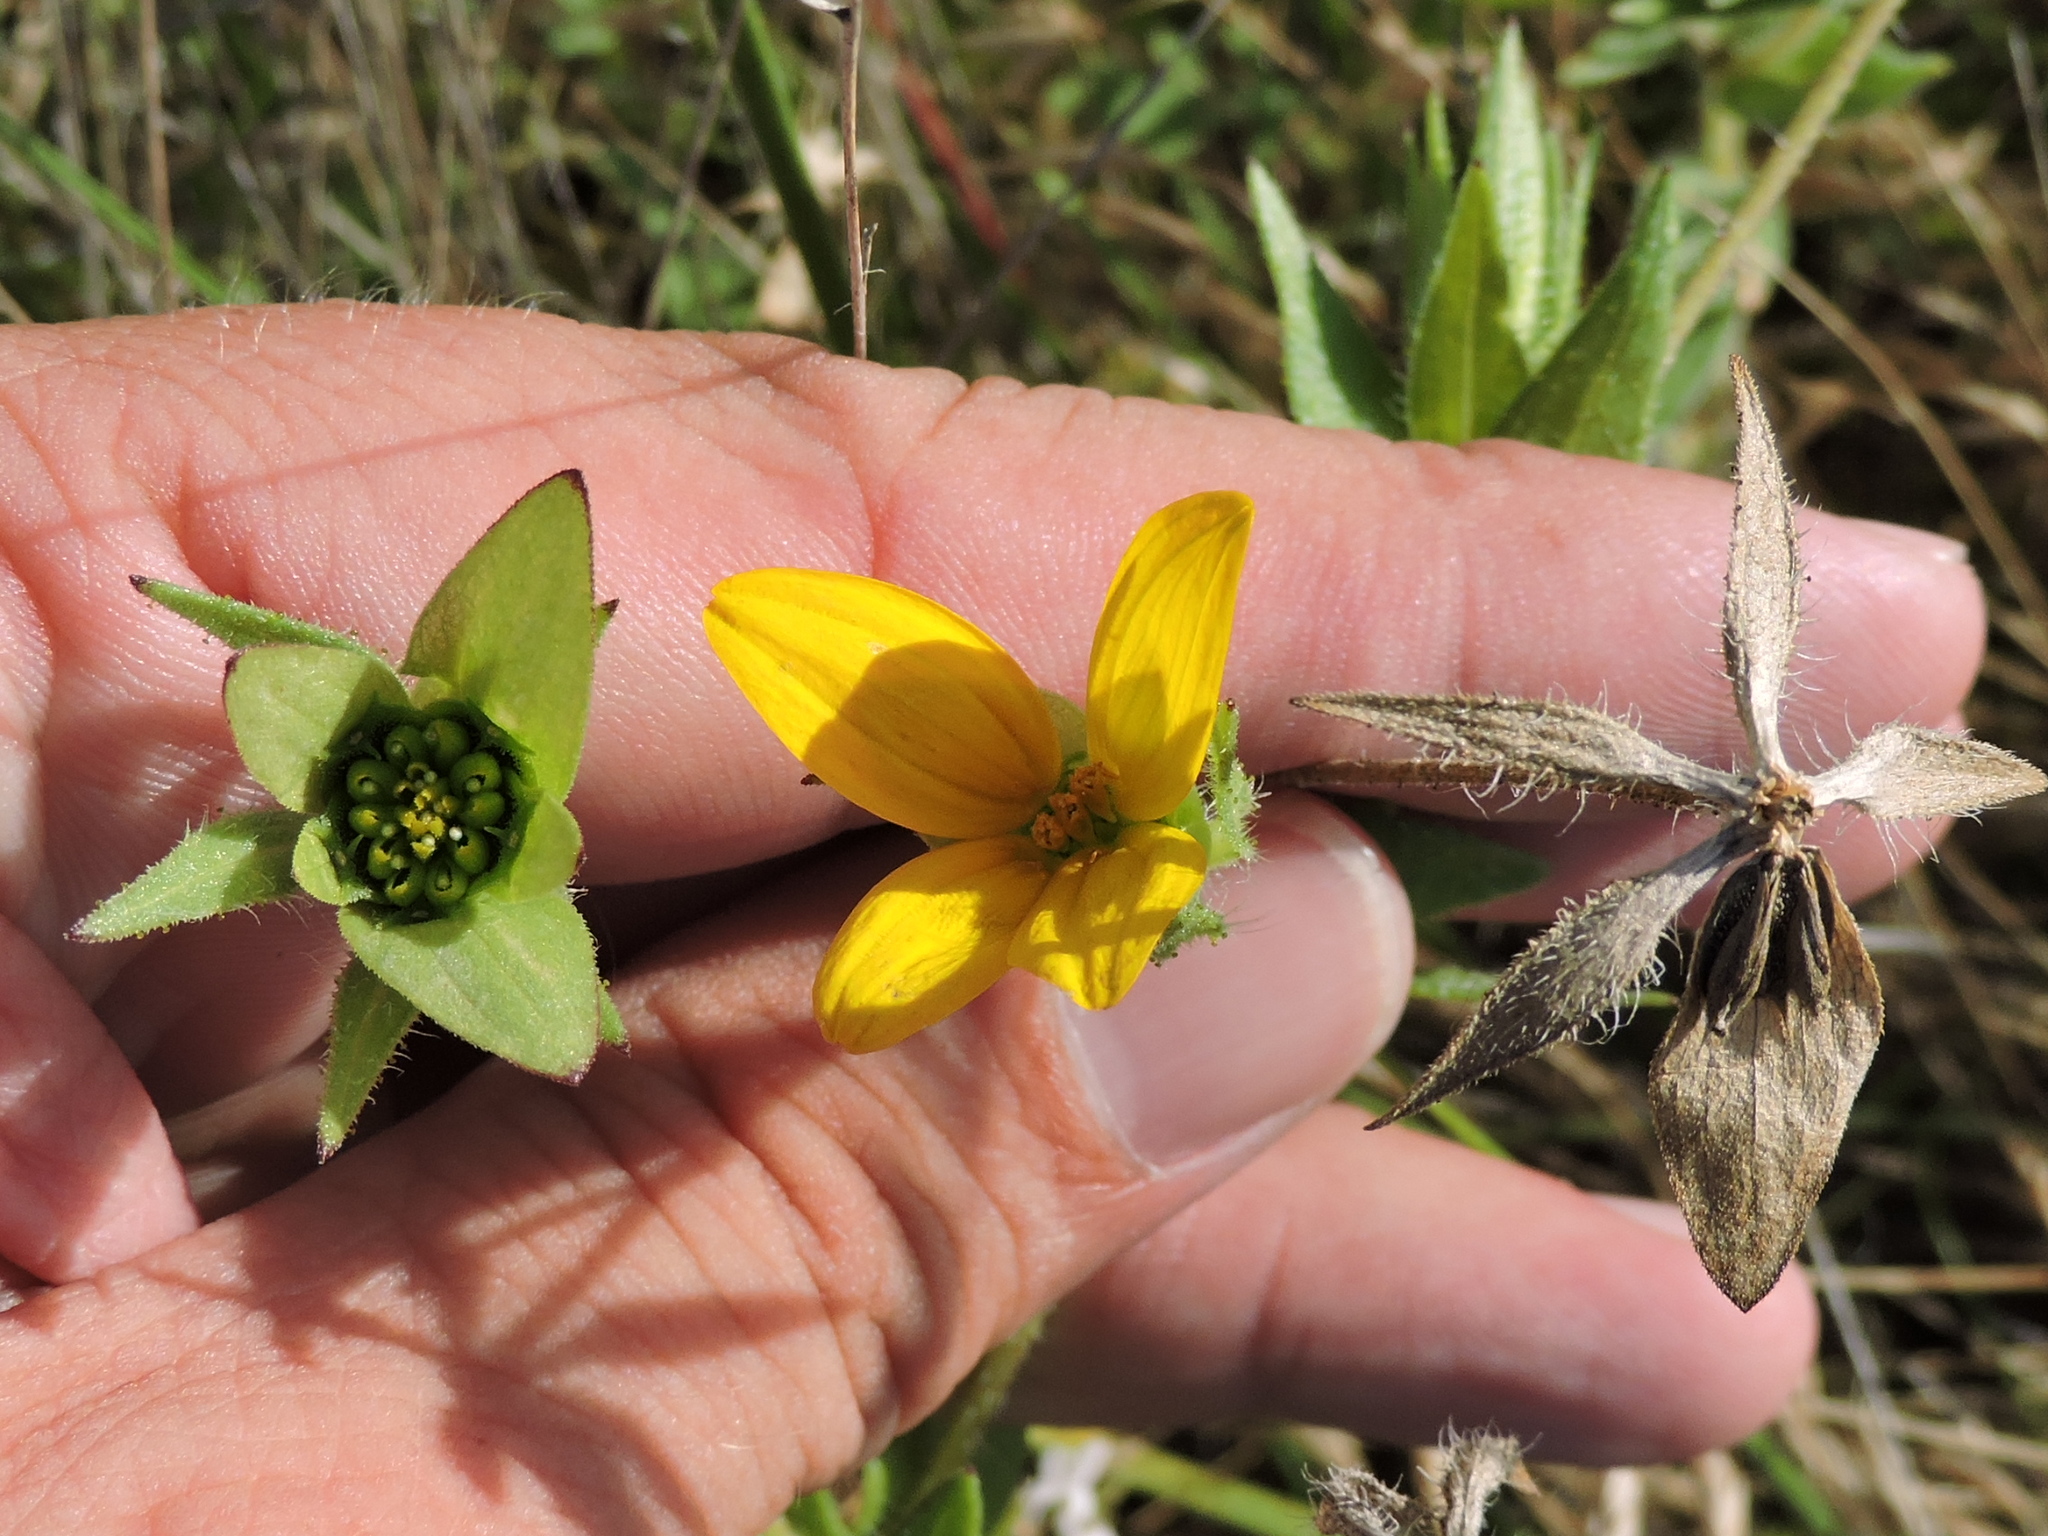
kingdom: Plantae
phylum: Tracheophyta
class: Magnoliopsida
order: Asterales
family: Asteraceae
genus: Lindheimera
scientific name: Lindheimera texana
